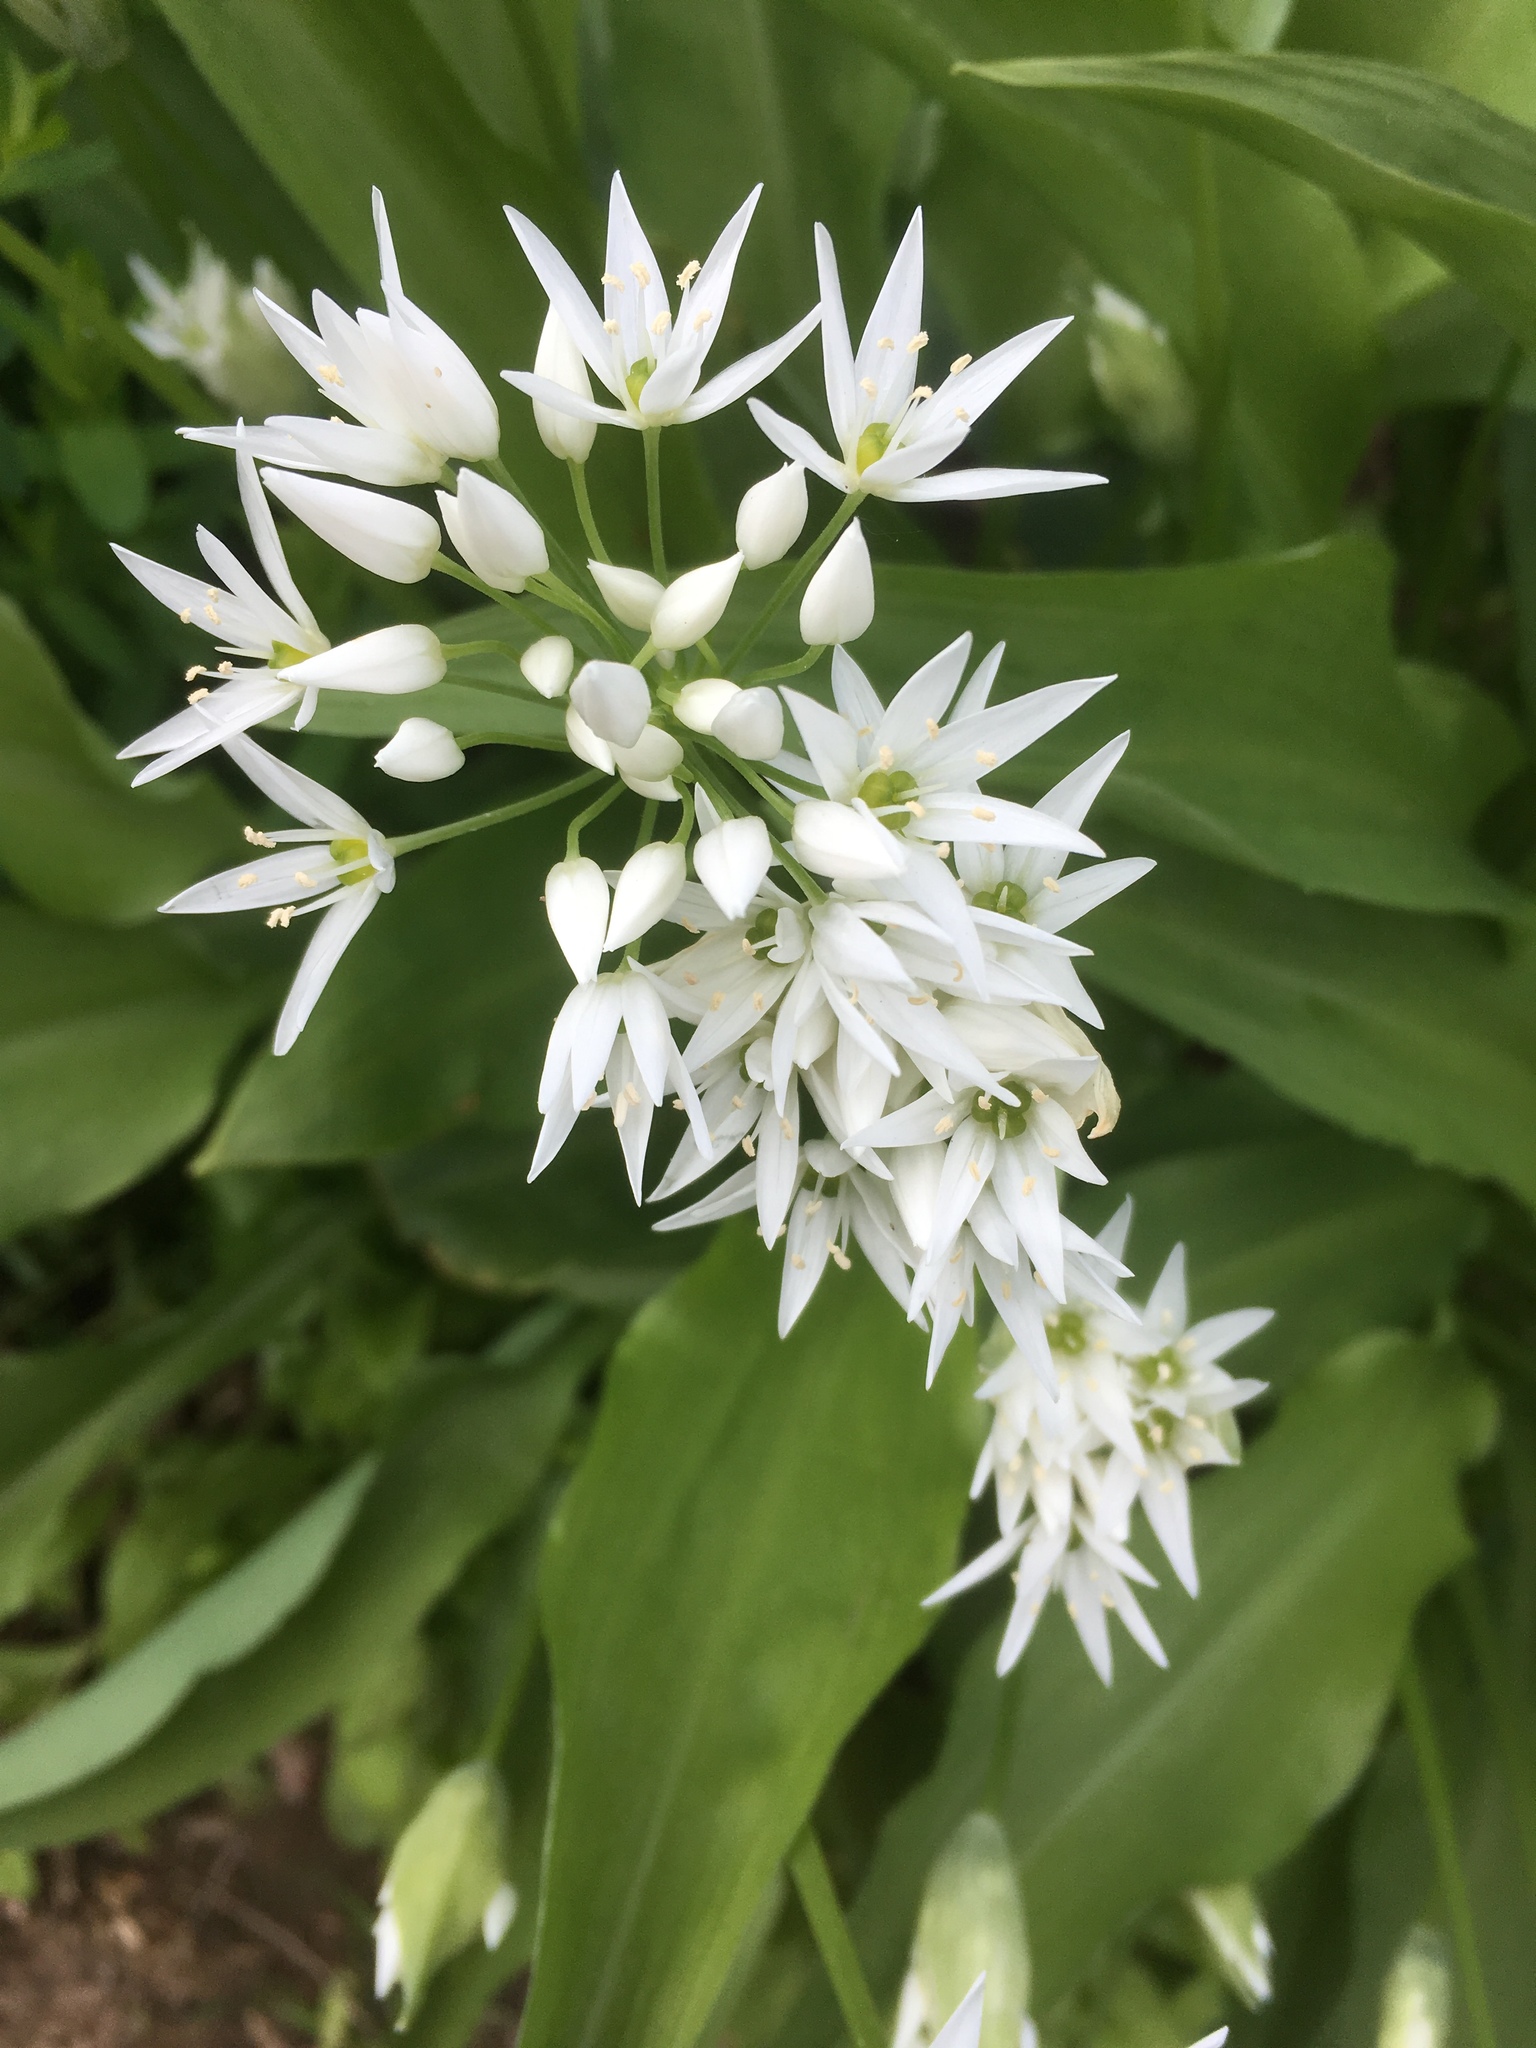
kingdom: Plantae
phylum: Tracheophyta
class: Liliopsida
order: Asparagales
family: Amaryllidaceae
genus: Allium
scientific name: Allium ursinum
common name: Ramsons
